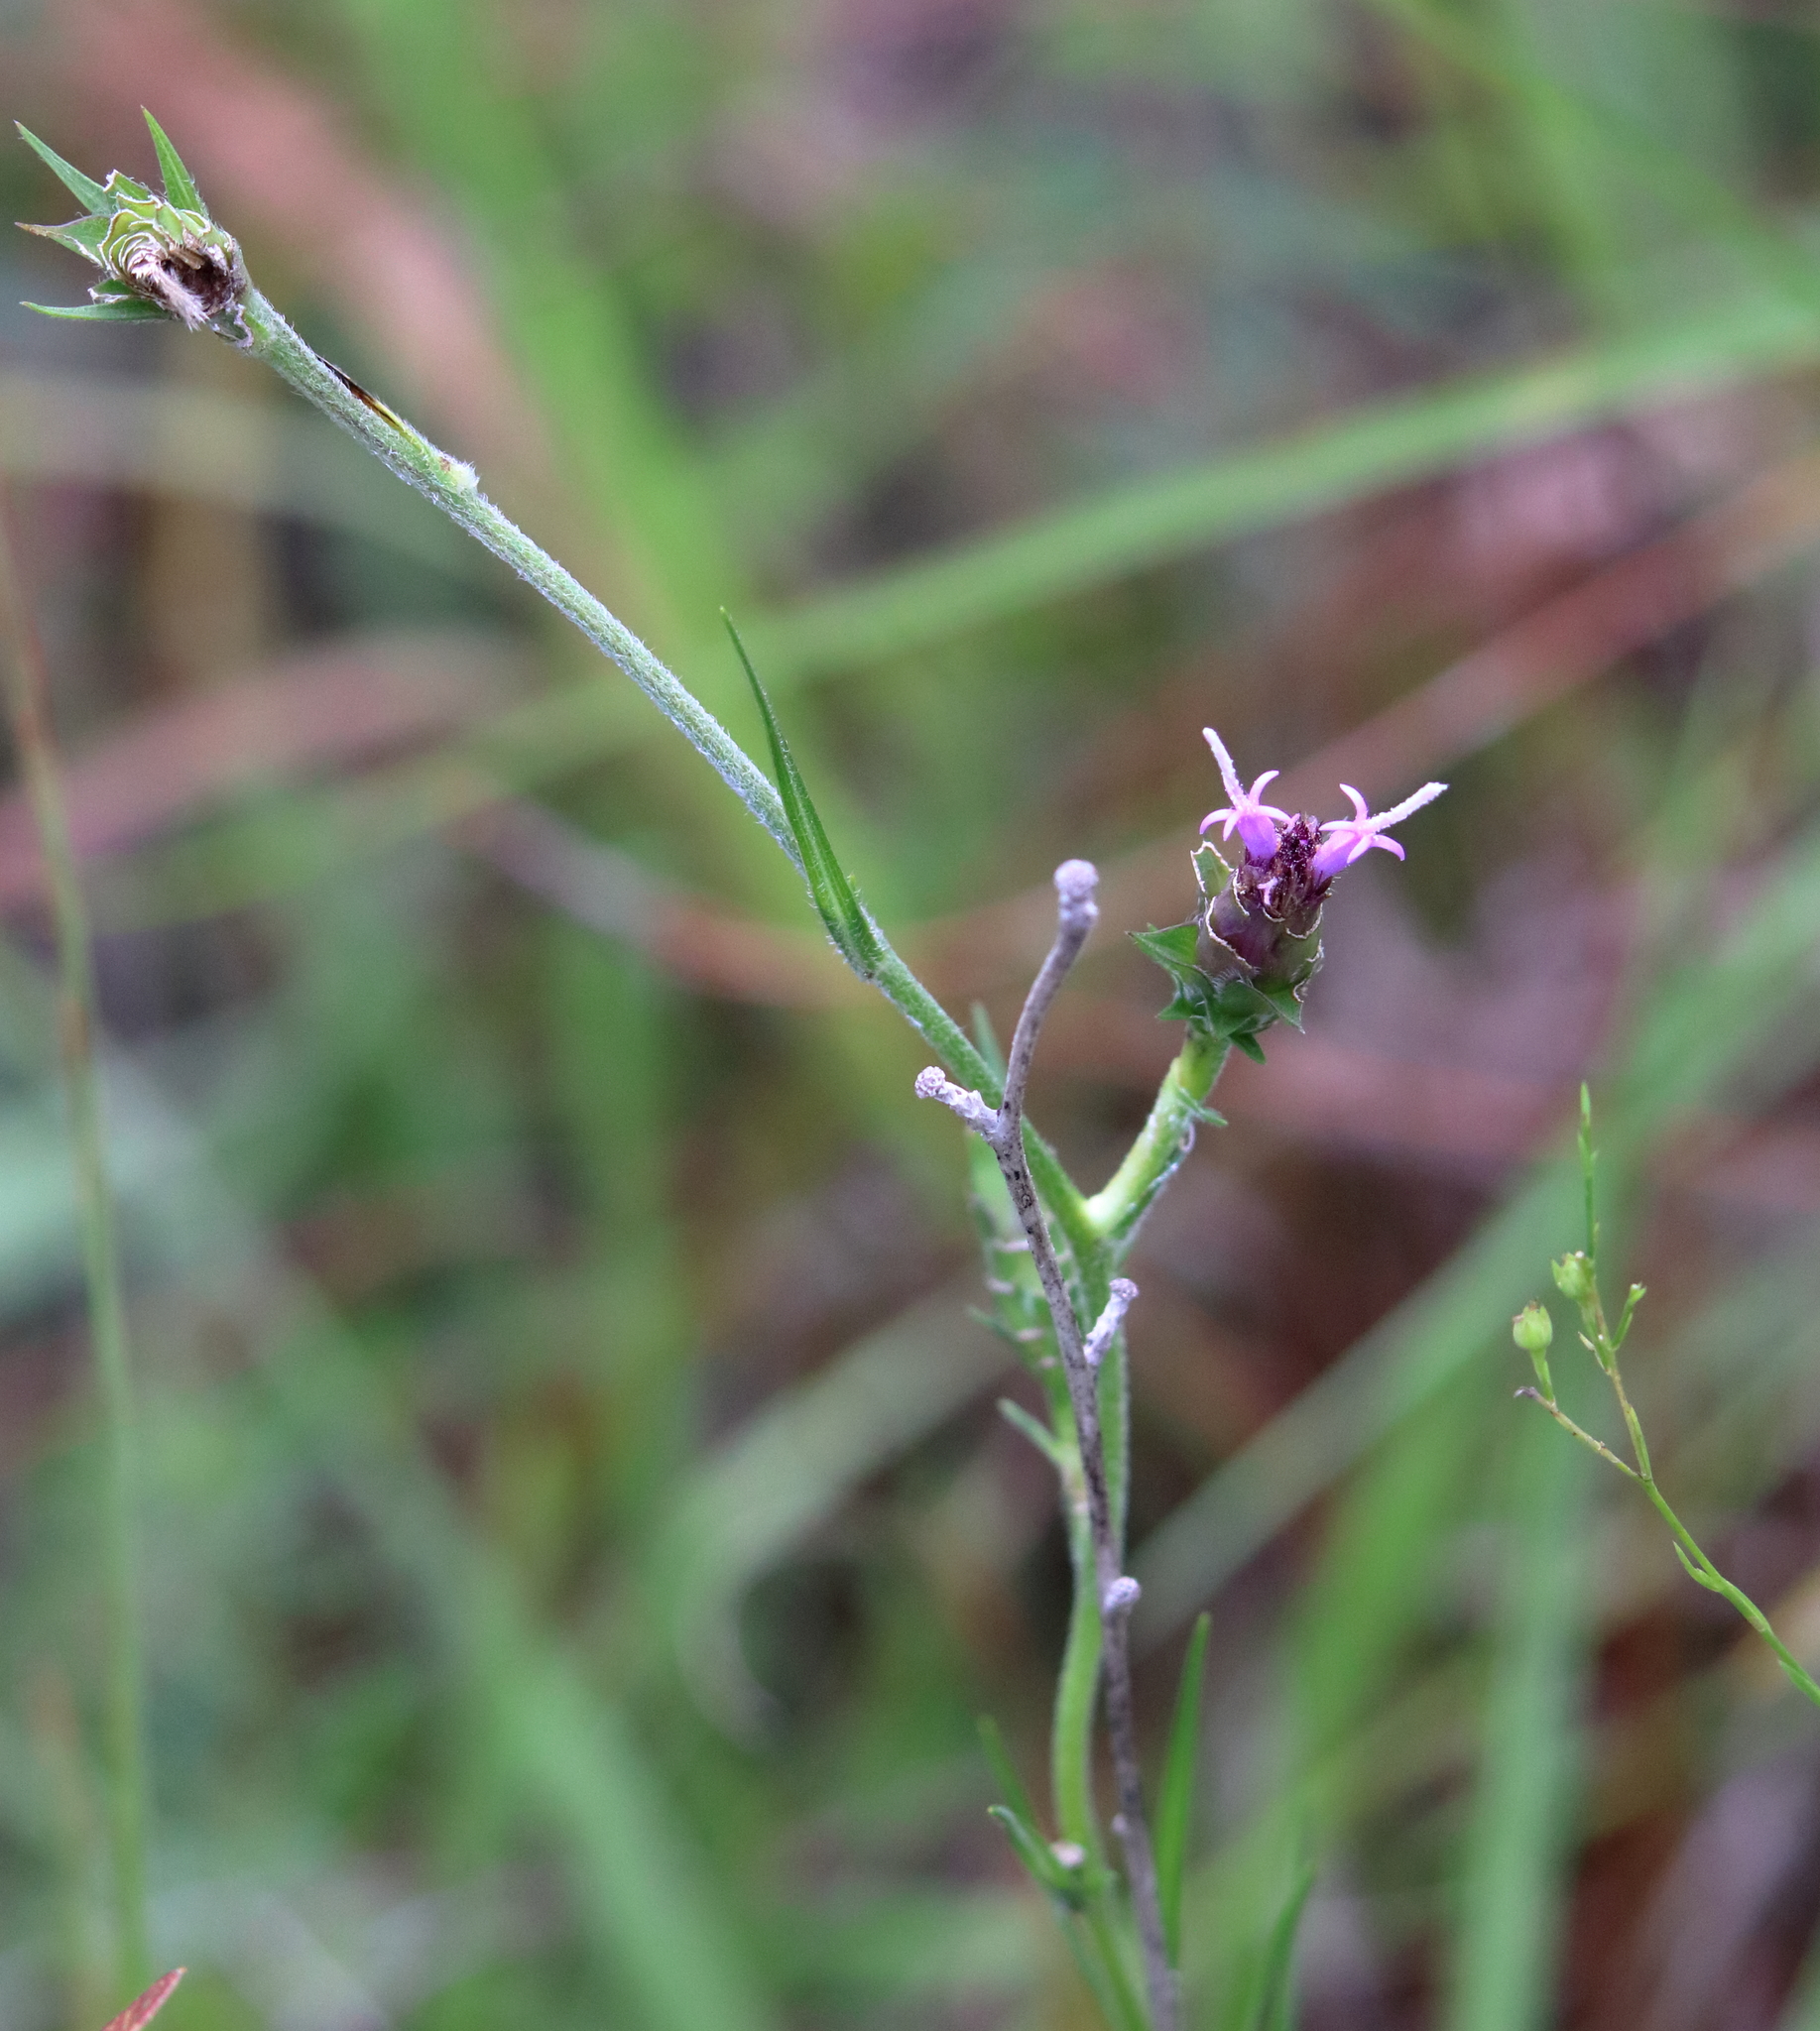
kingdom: Plantae
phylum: Tracheophyta
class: Magnoliopsida
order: Asterales
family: Asteraceae
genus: Liatris
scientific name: Liatris squarrosa
